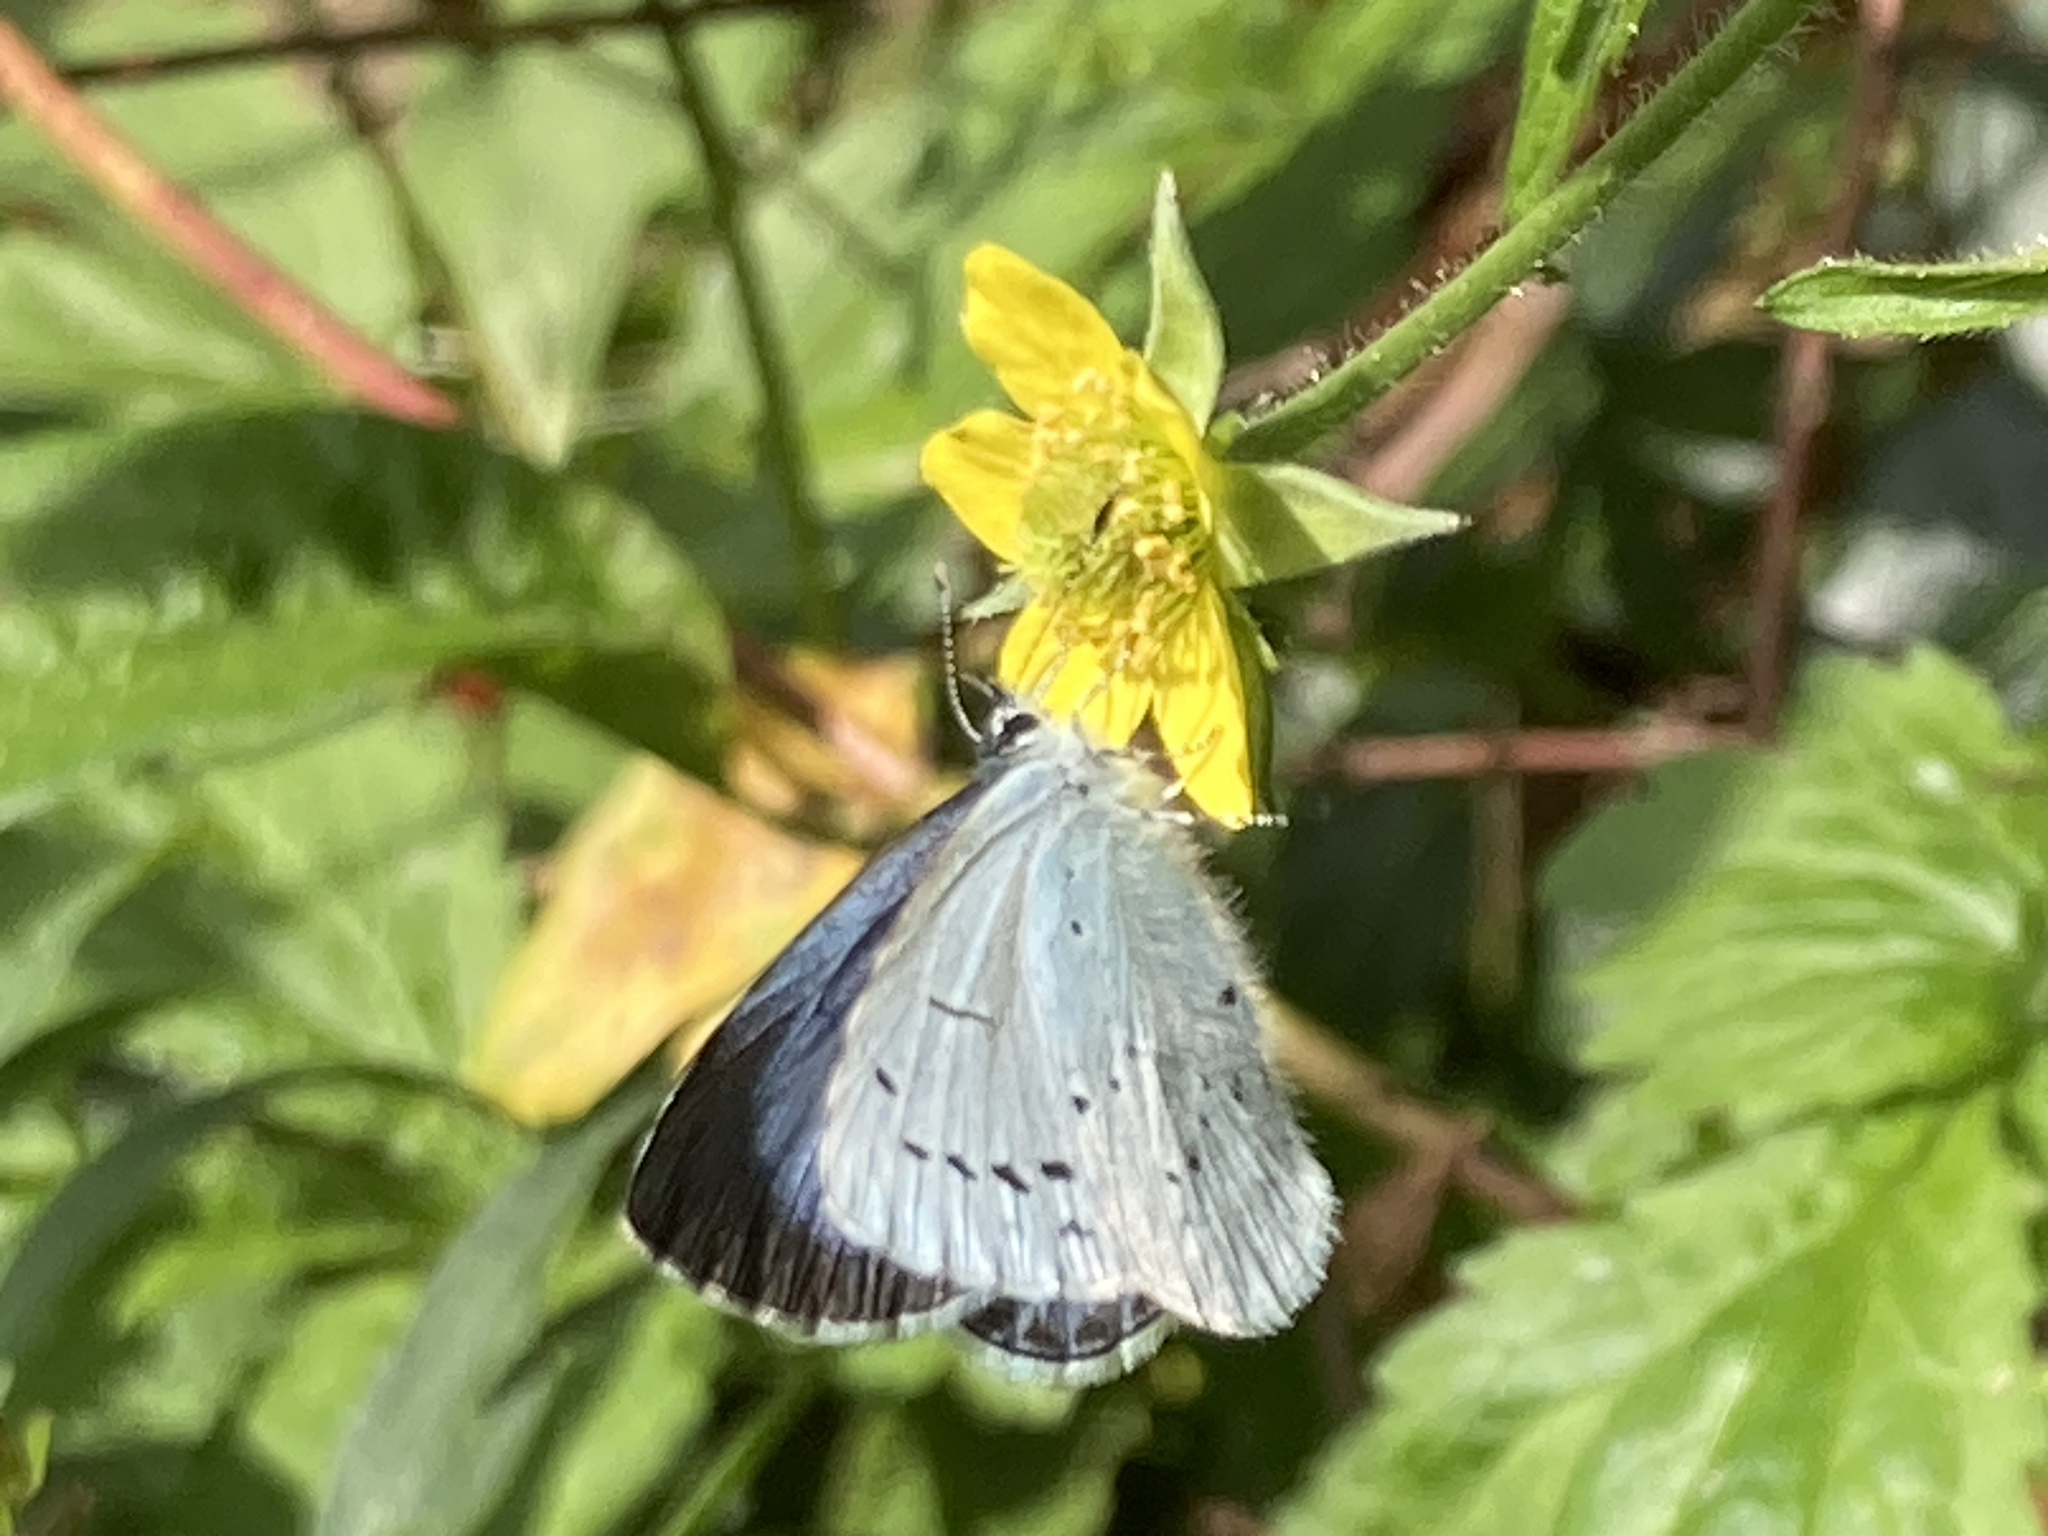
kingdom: Animalia
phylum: Arthropoda
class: Insecta
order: Lepidoptera
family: Lycaenidae
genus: Celastrina
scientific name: Celastrina argiolus
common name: Holly blue
